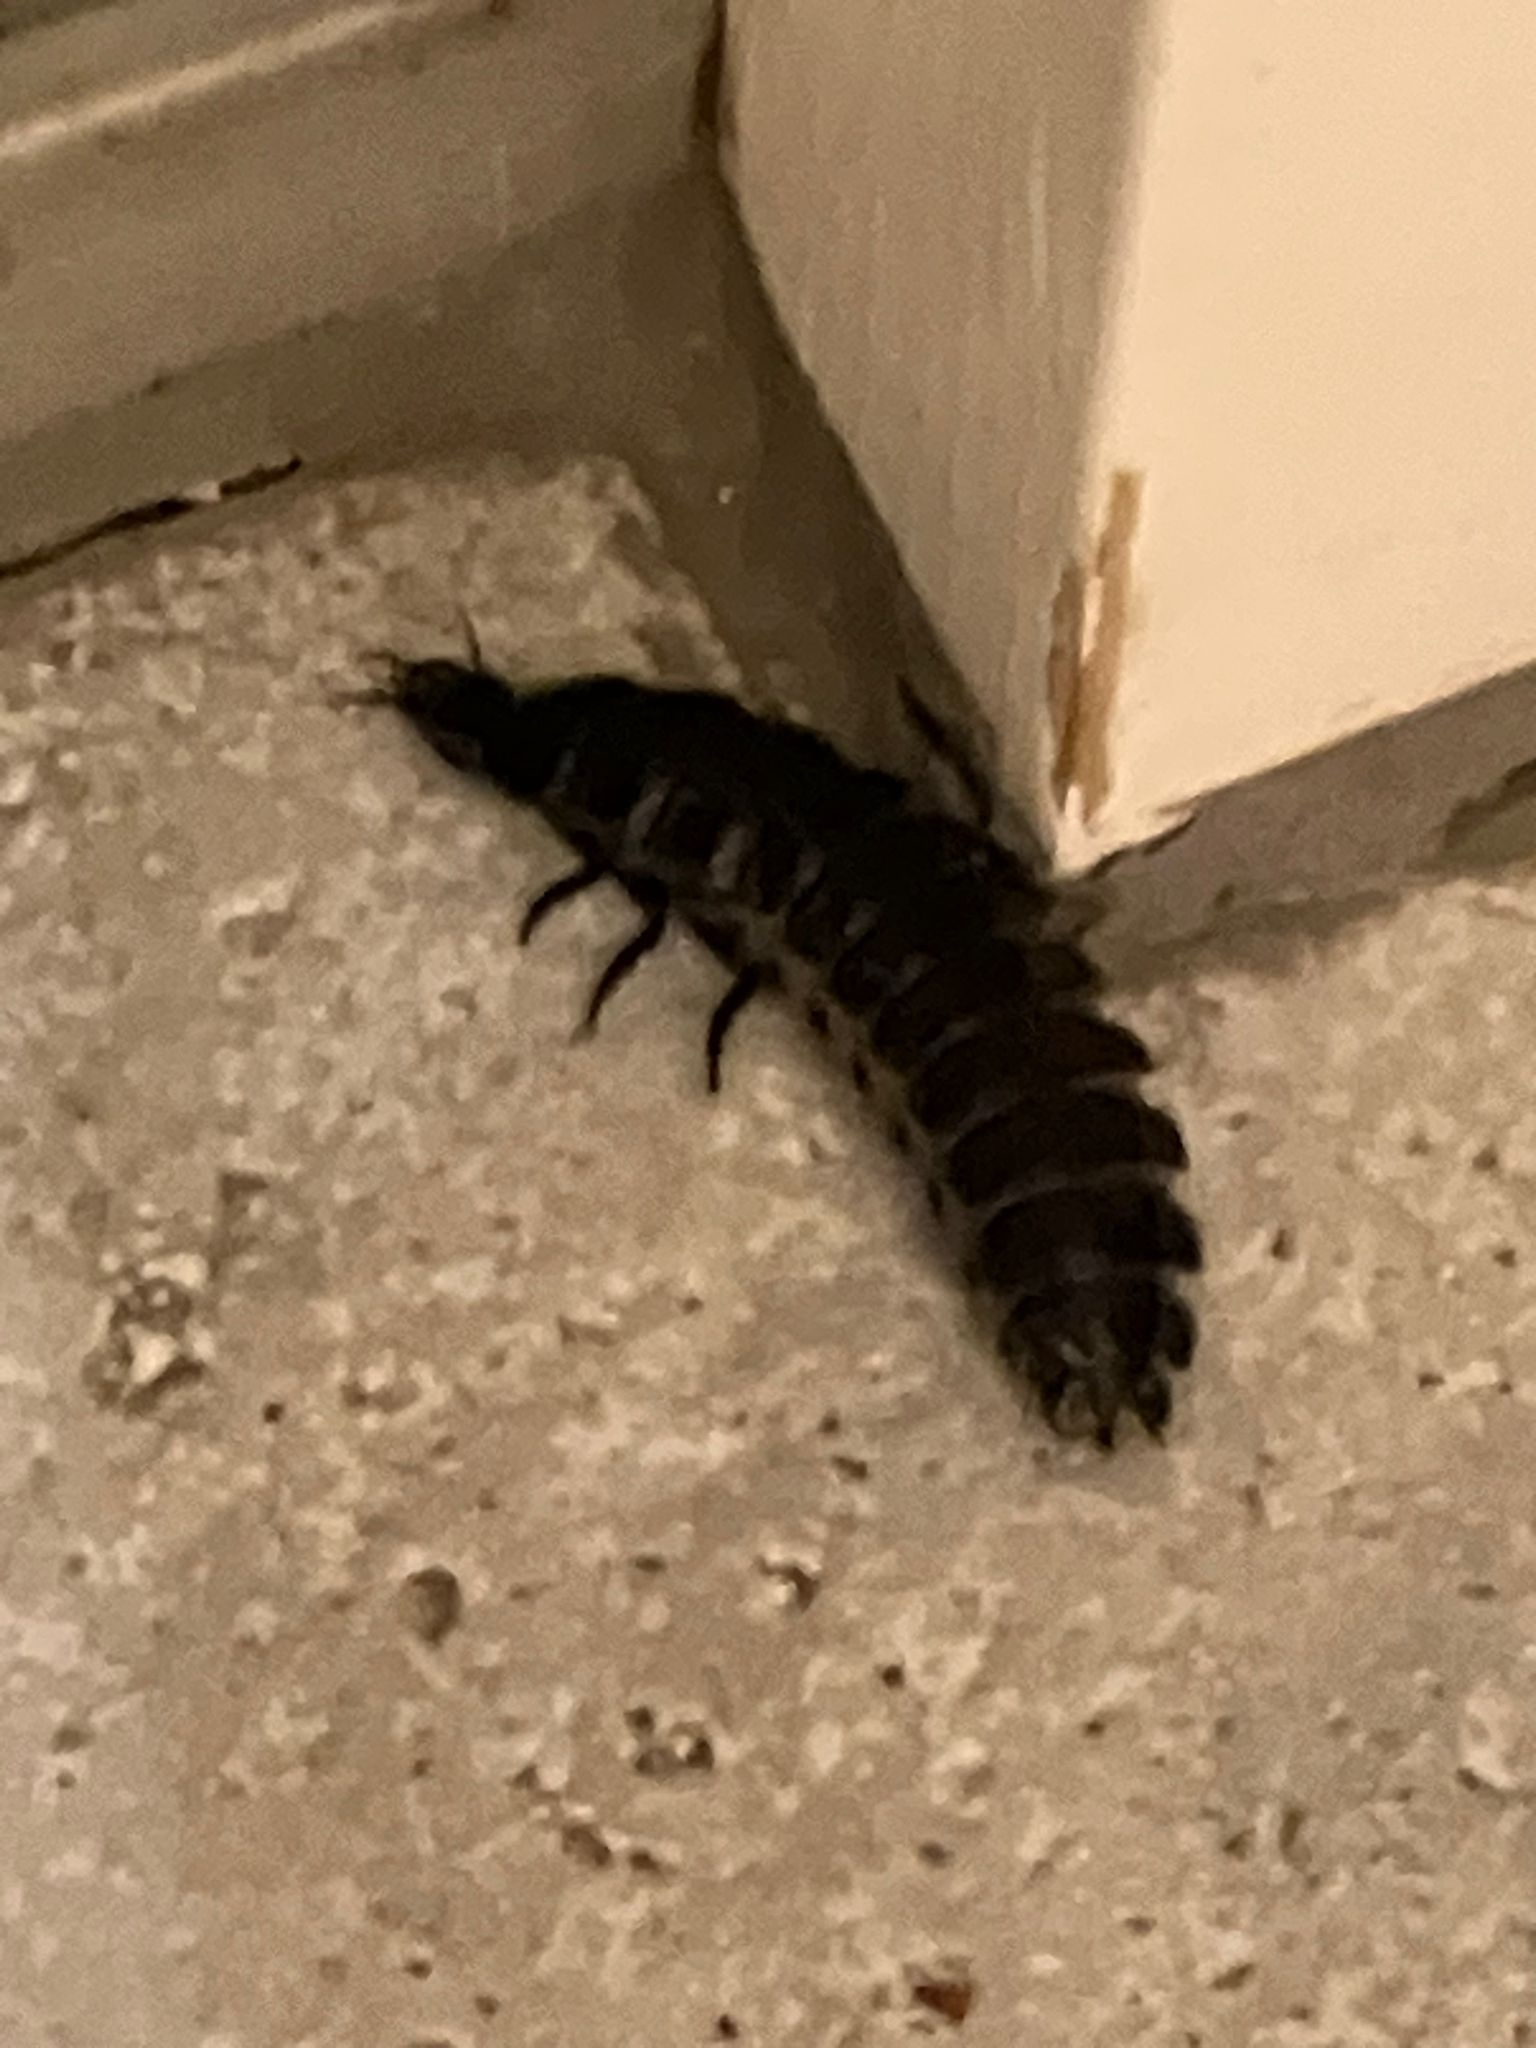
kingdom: Animalia
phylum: Arthropoda
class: Insecta
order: Coleoptera
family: Carabidae
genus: Carabus
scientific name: Carabus
